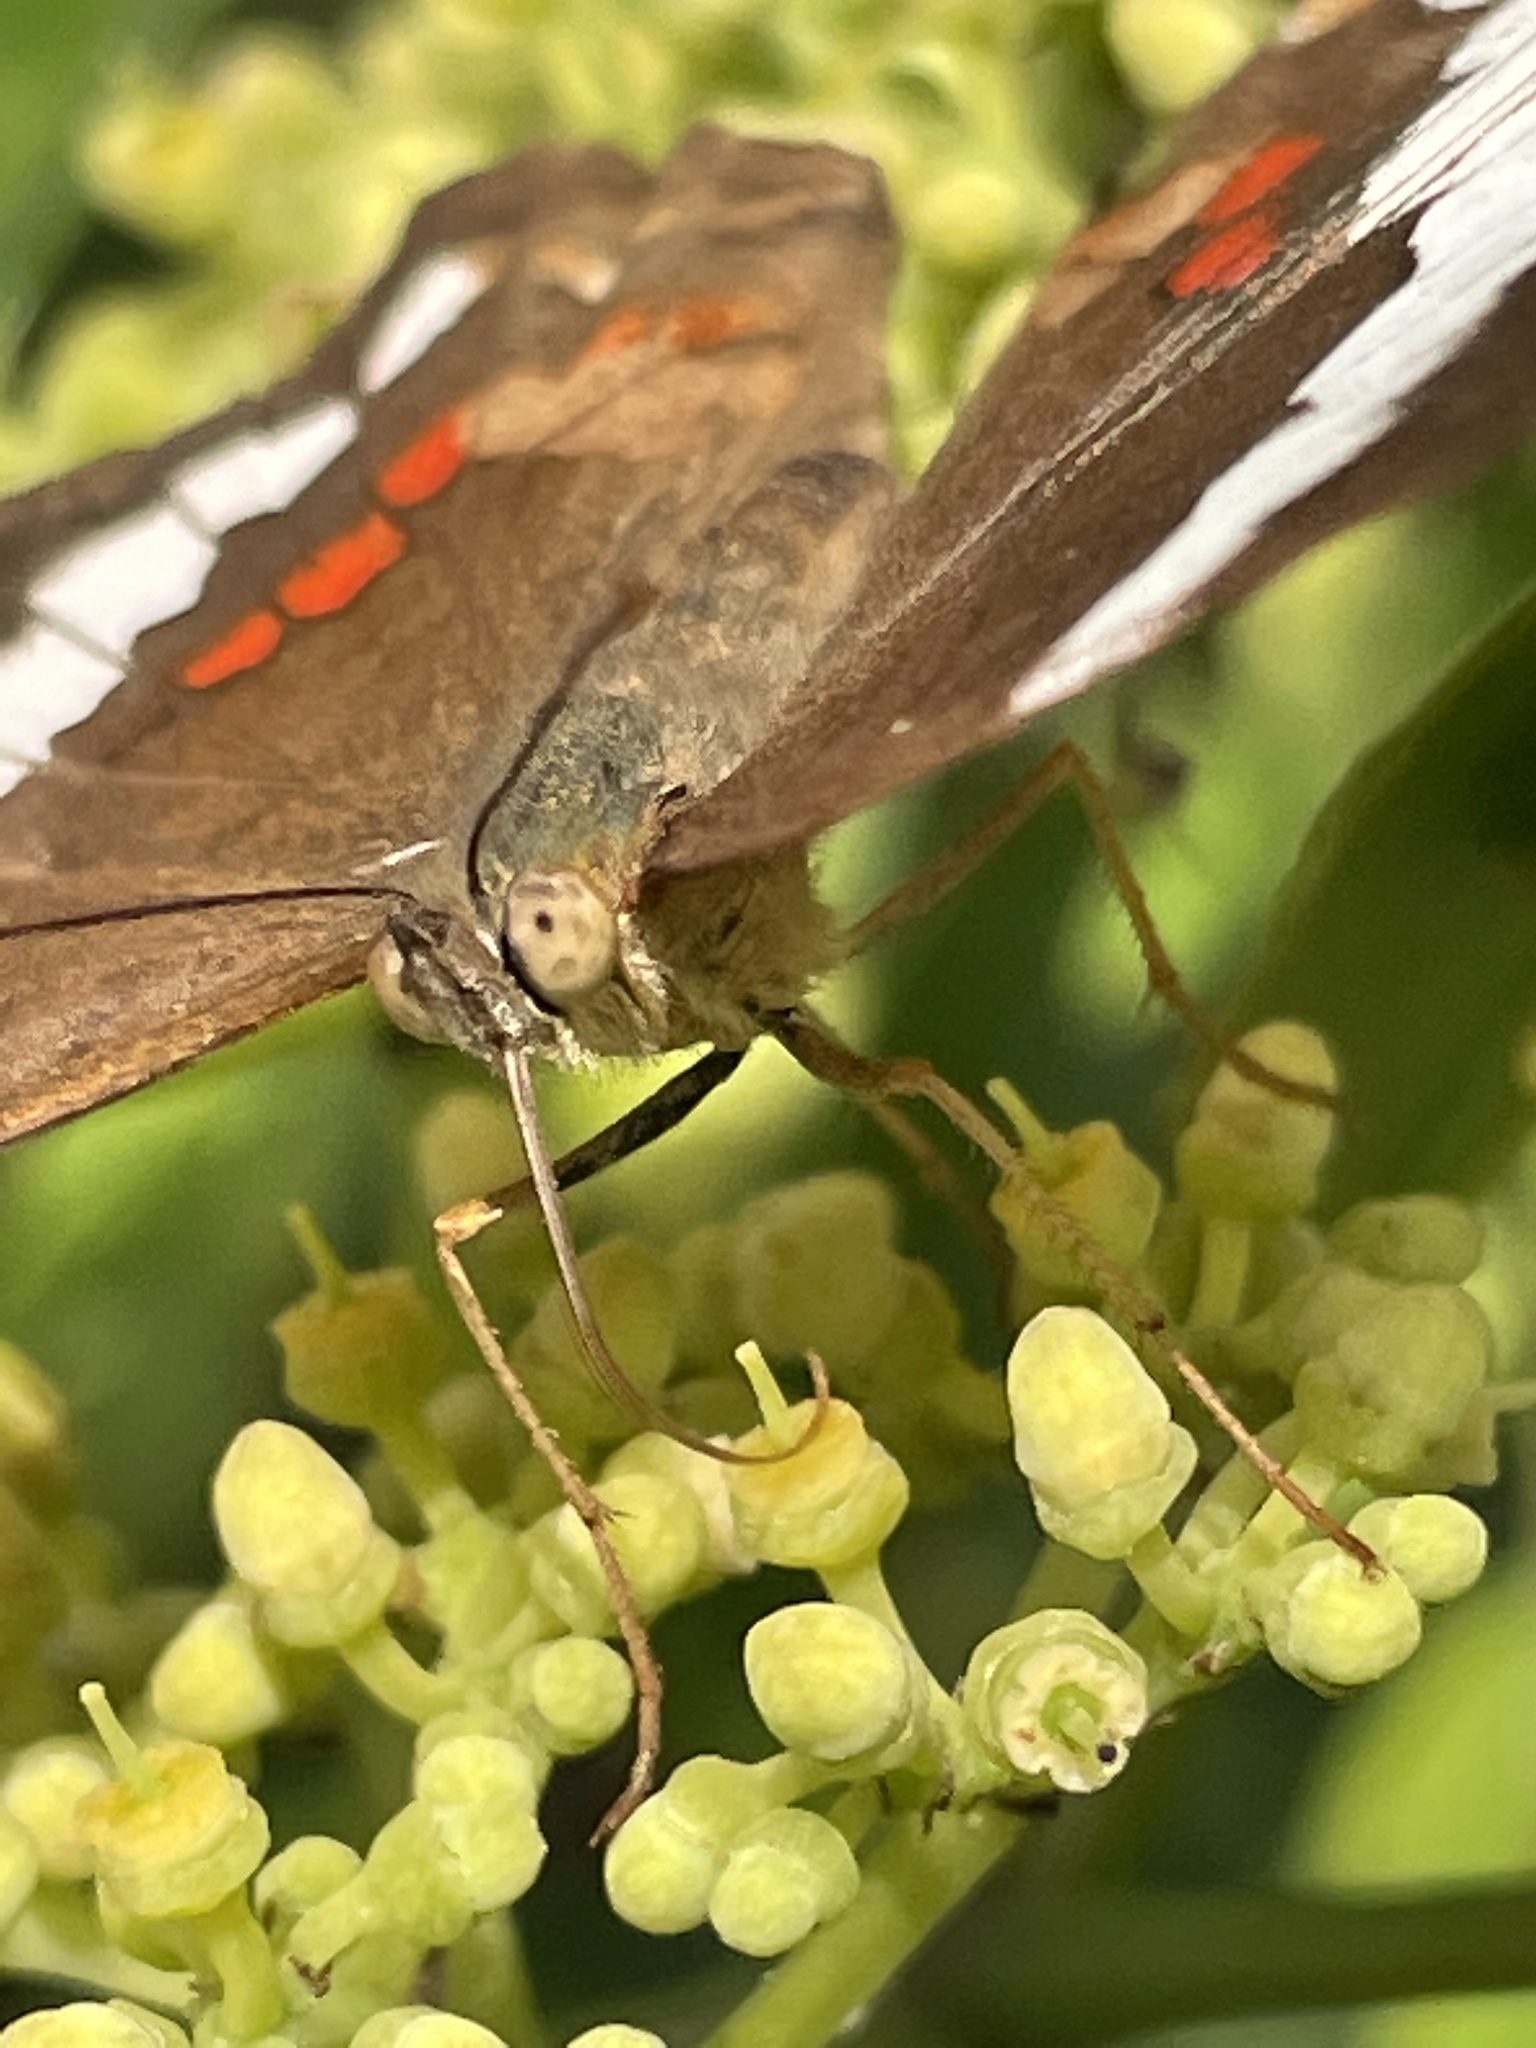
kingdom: Animalia
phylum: Arthropoda
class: Insecta
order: Lepidoptera
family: Nymphalidae
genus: Anartia
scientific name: Anartia fatima
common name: Banded peacock
